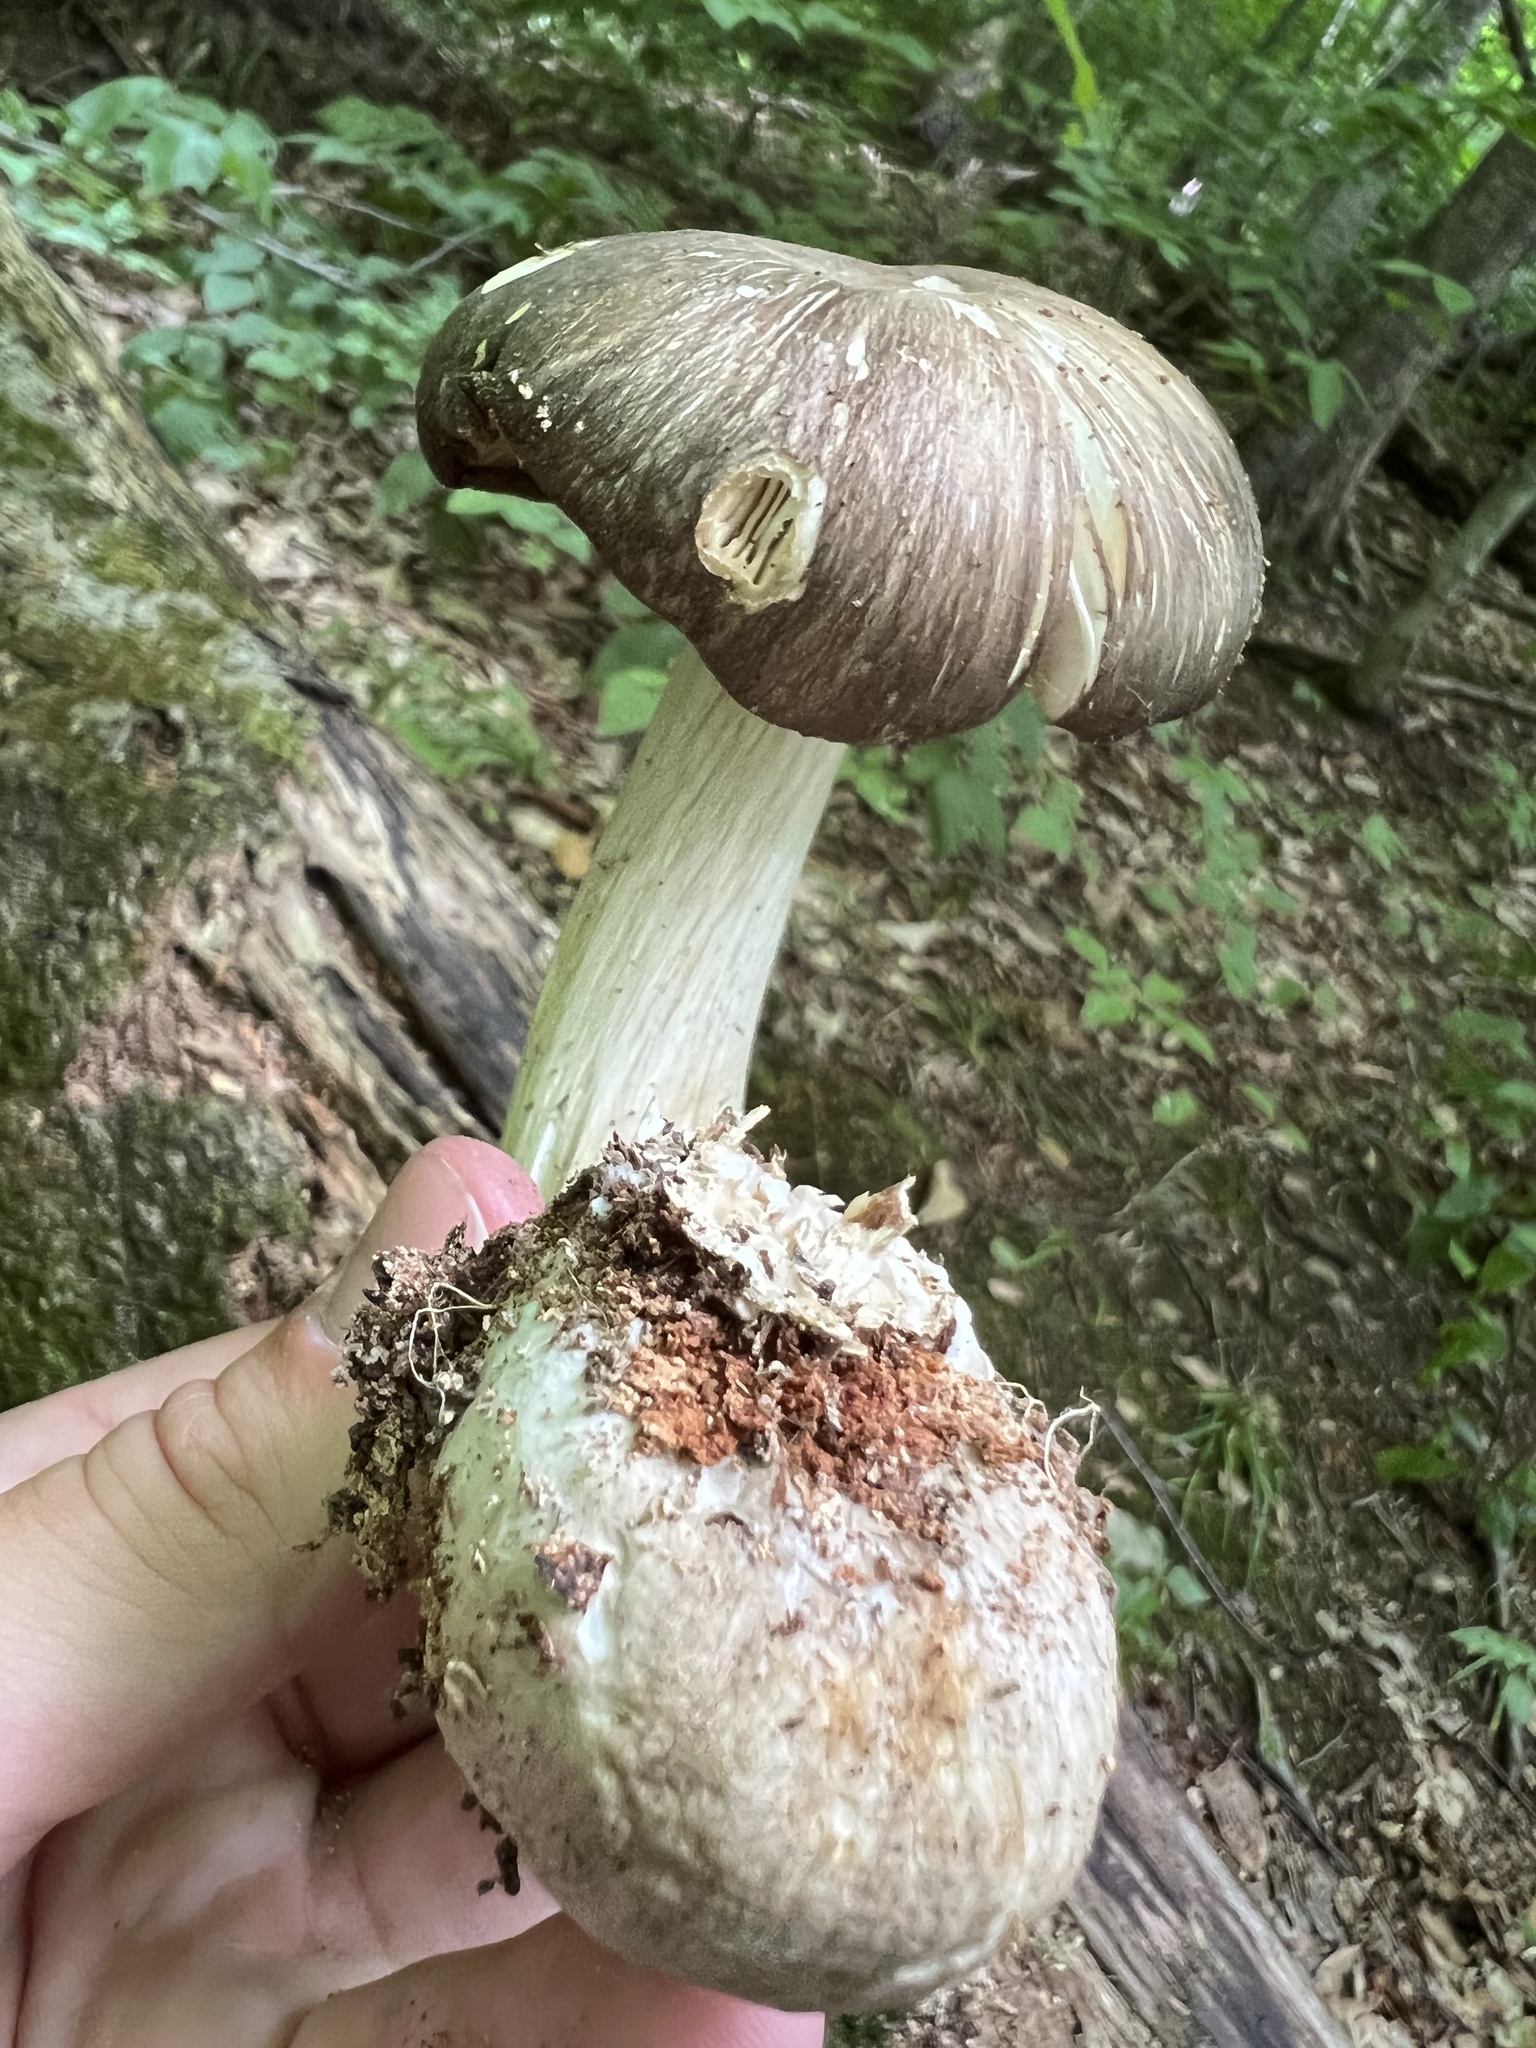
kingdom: Fungi
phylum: Basidiomycota
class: Agaricomycetes
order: Agaricales
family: Tricholomataceae
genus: Megacollybia
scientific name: Megacollybia rodmanii
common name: Eastern american platterful mushroom
